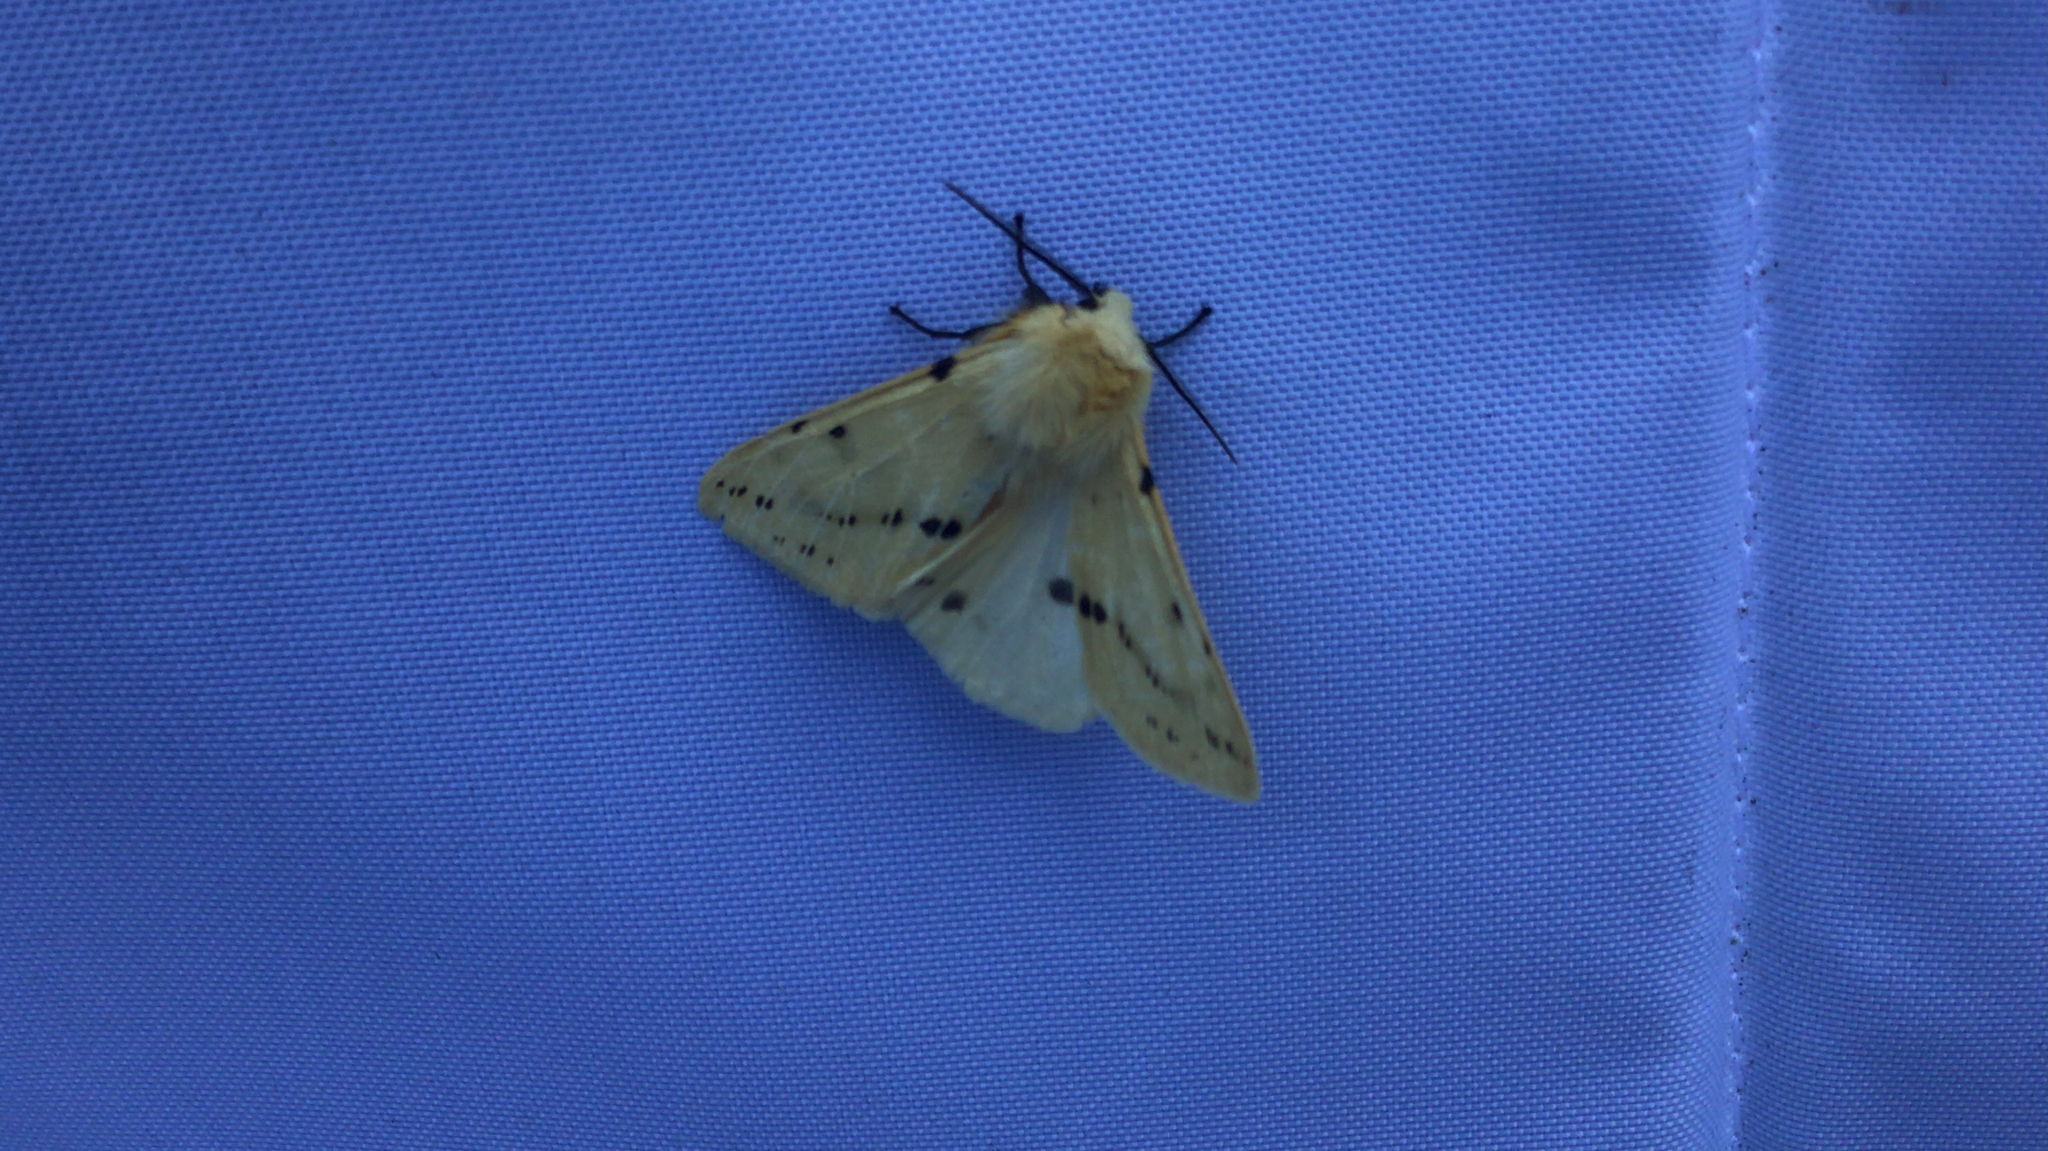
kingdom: Animalia
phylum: Arthropoda
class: Insecta
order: Lepidoptera
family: Erebidae
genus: Spilarctia
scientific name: Spilarctia lutea
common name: Buff ermine
